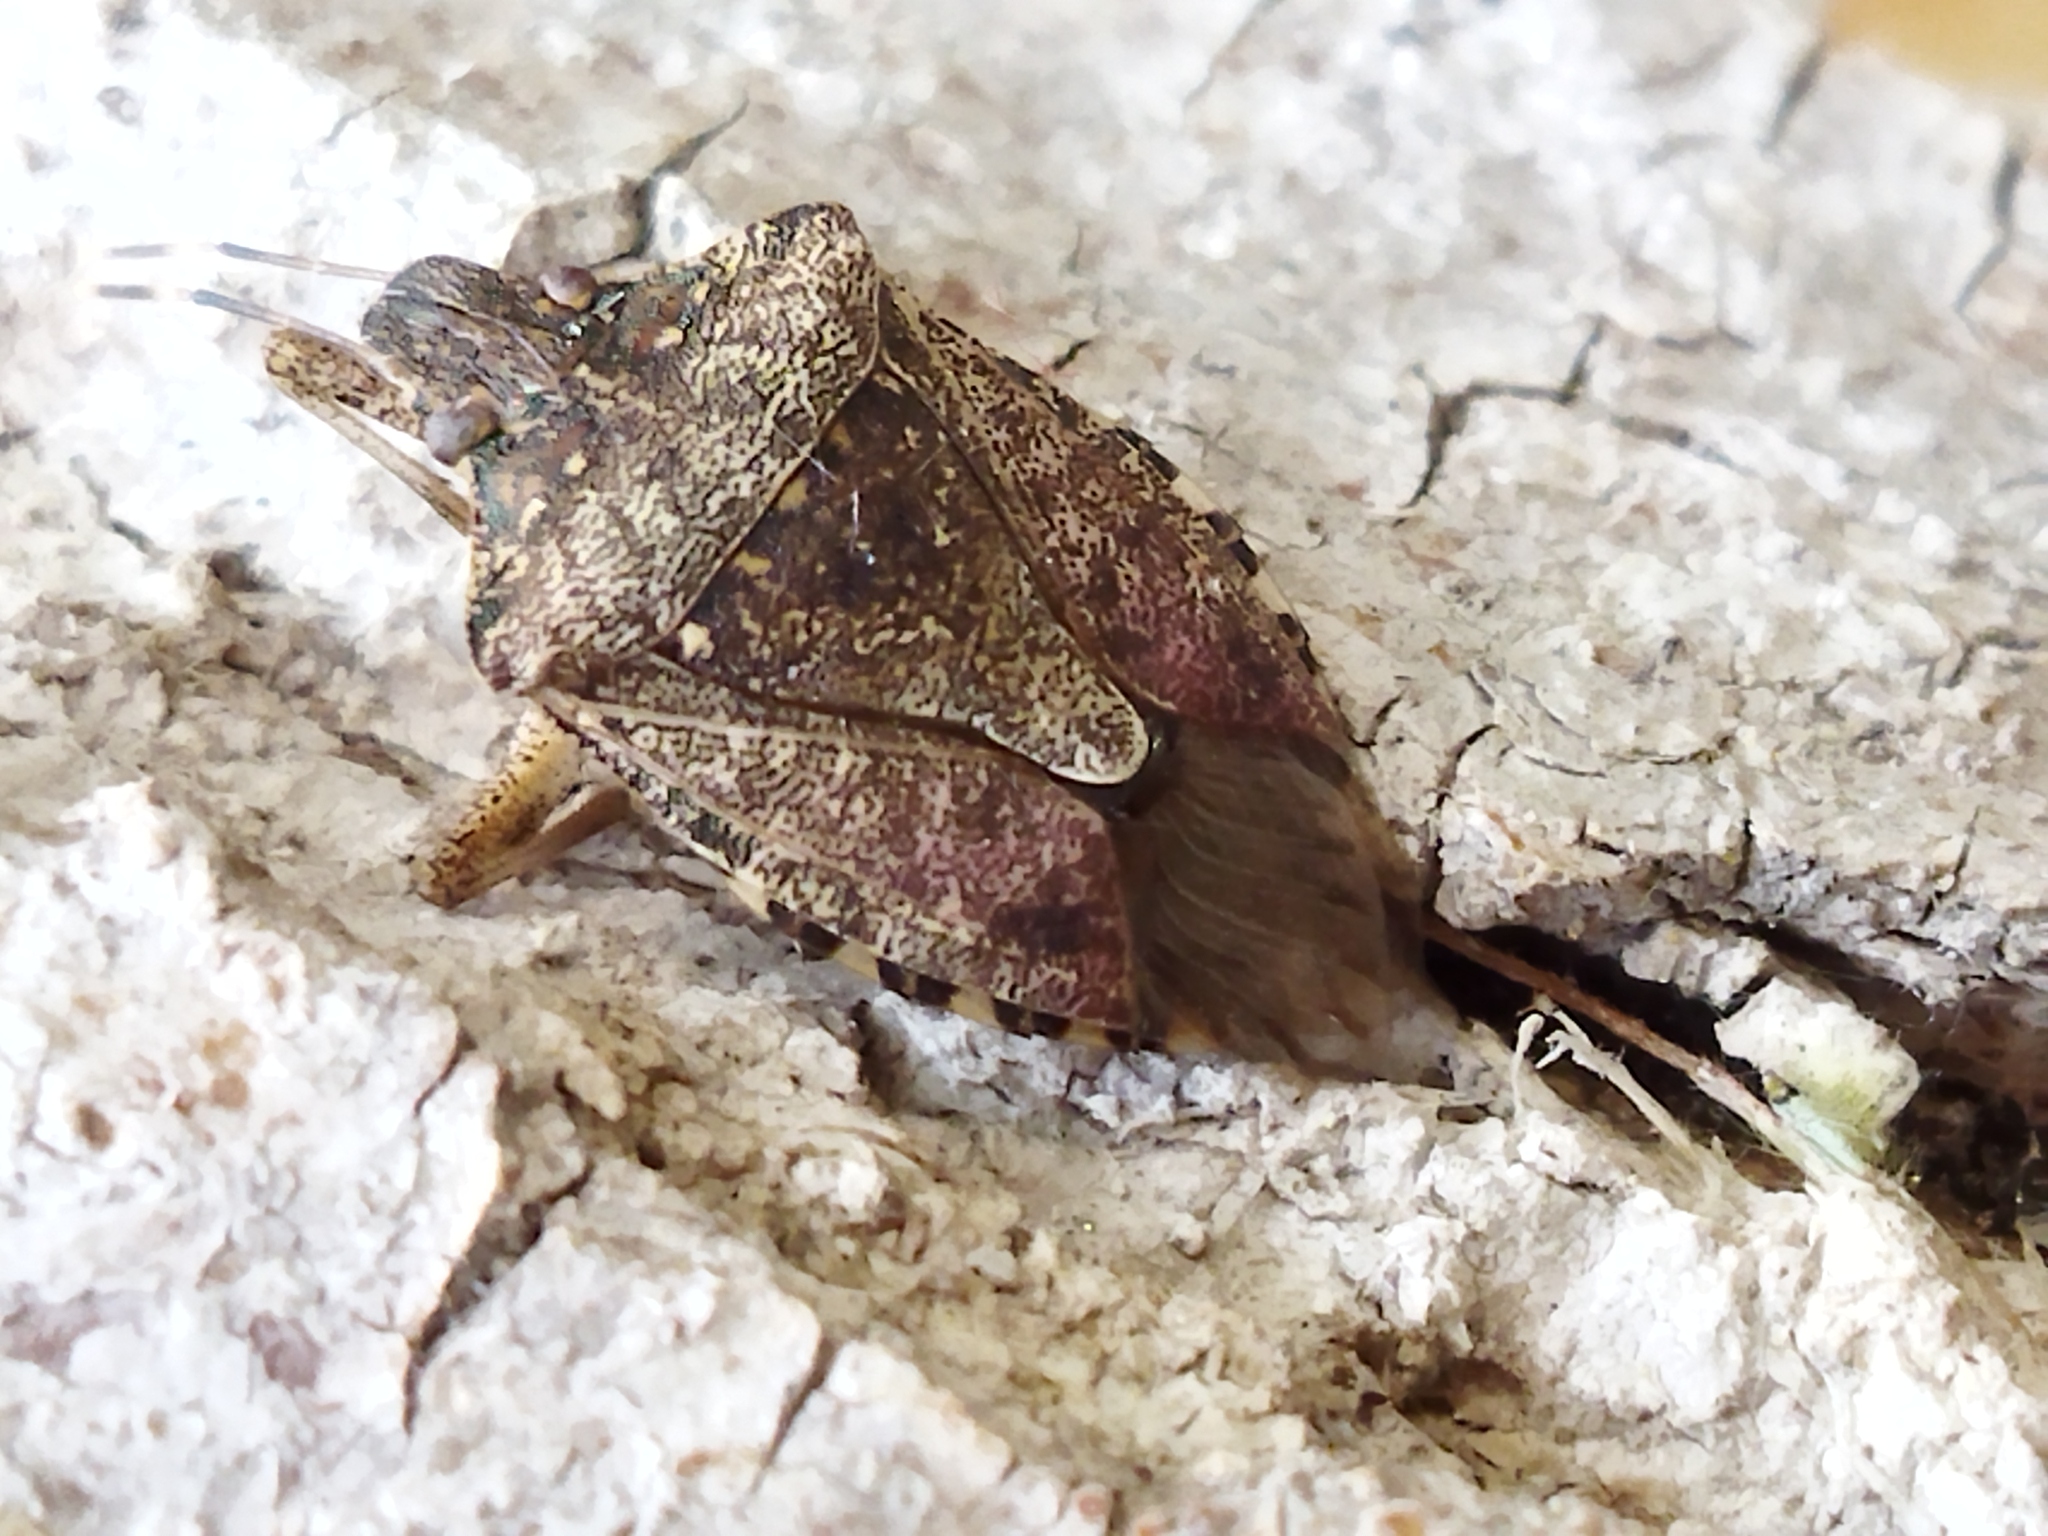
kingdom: Animalia
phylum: Arthropoda
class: Insecta
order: Hemiptera
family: Pentatomidae
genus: Halyomorpha
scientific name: Halyomorpha halys
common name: Brown marmorated stink bug
